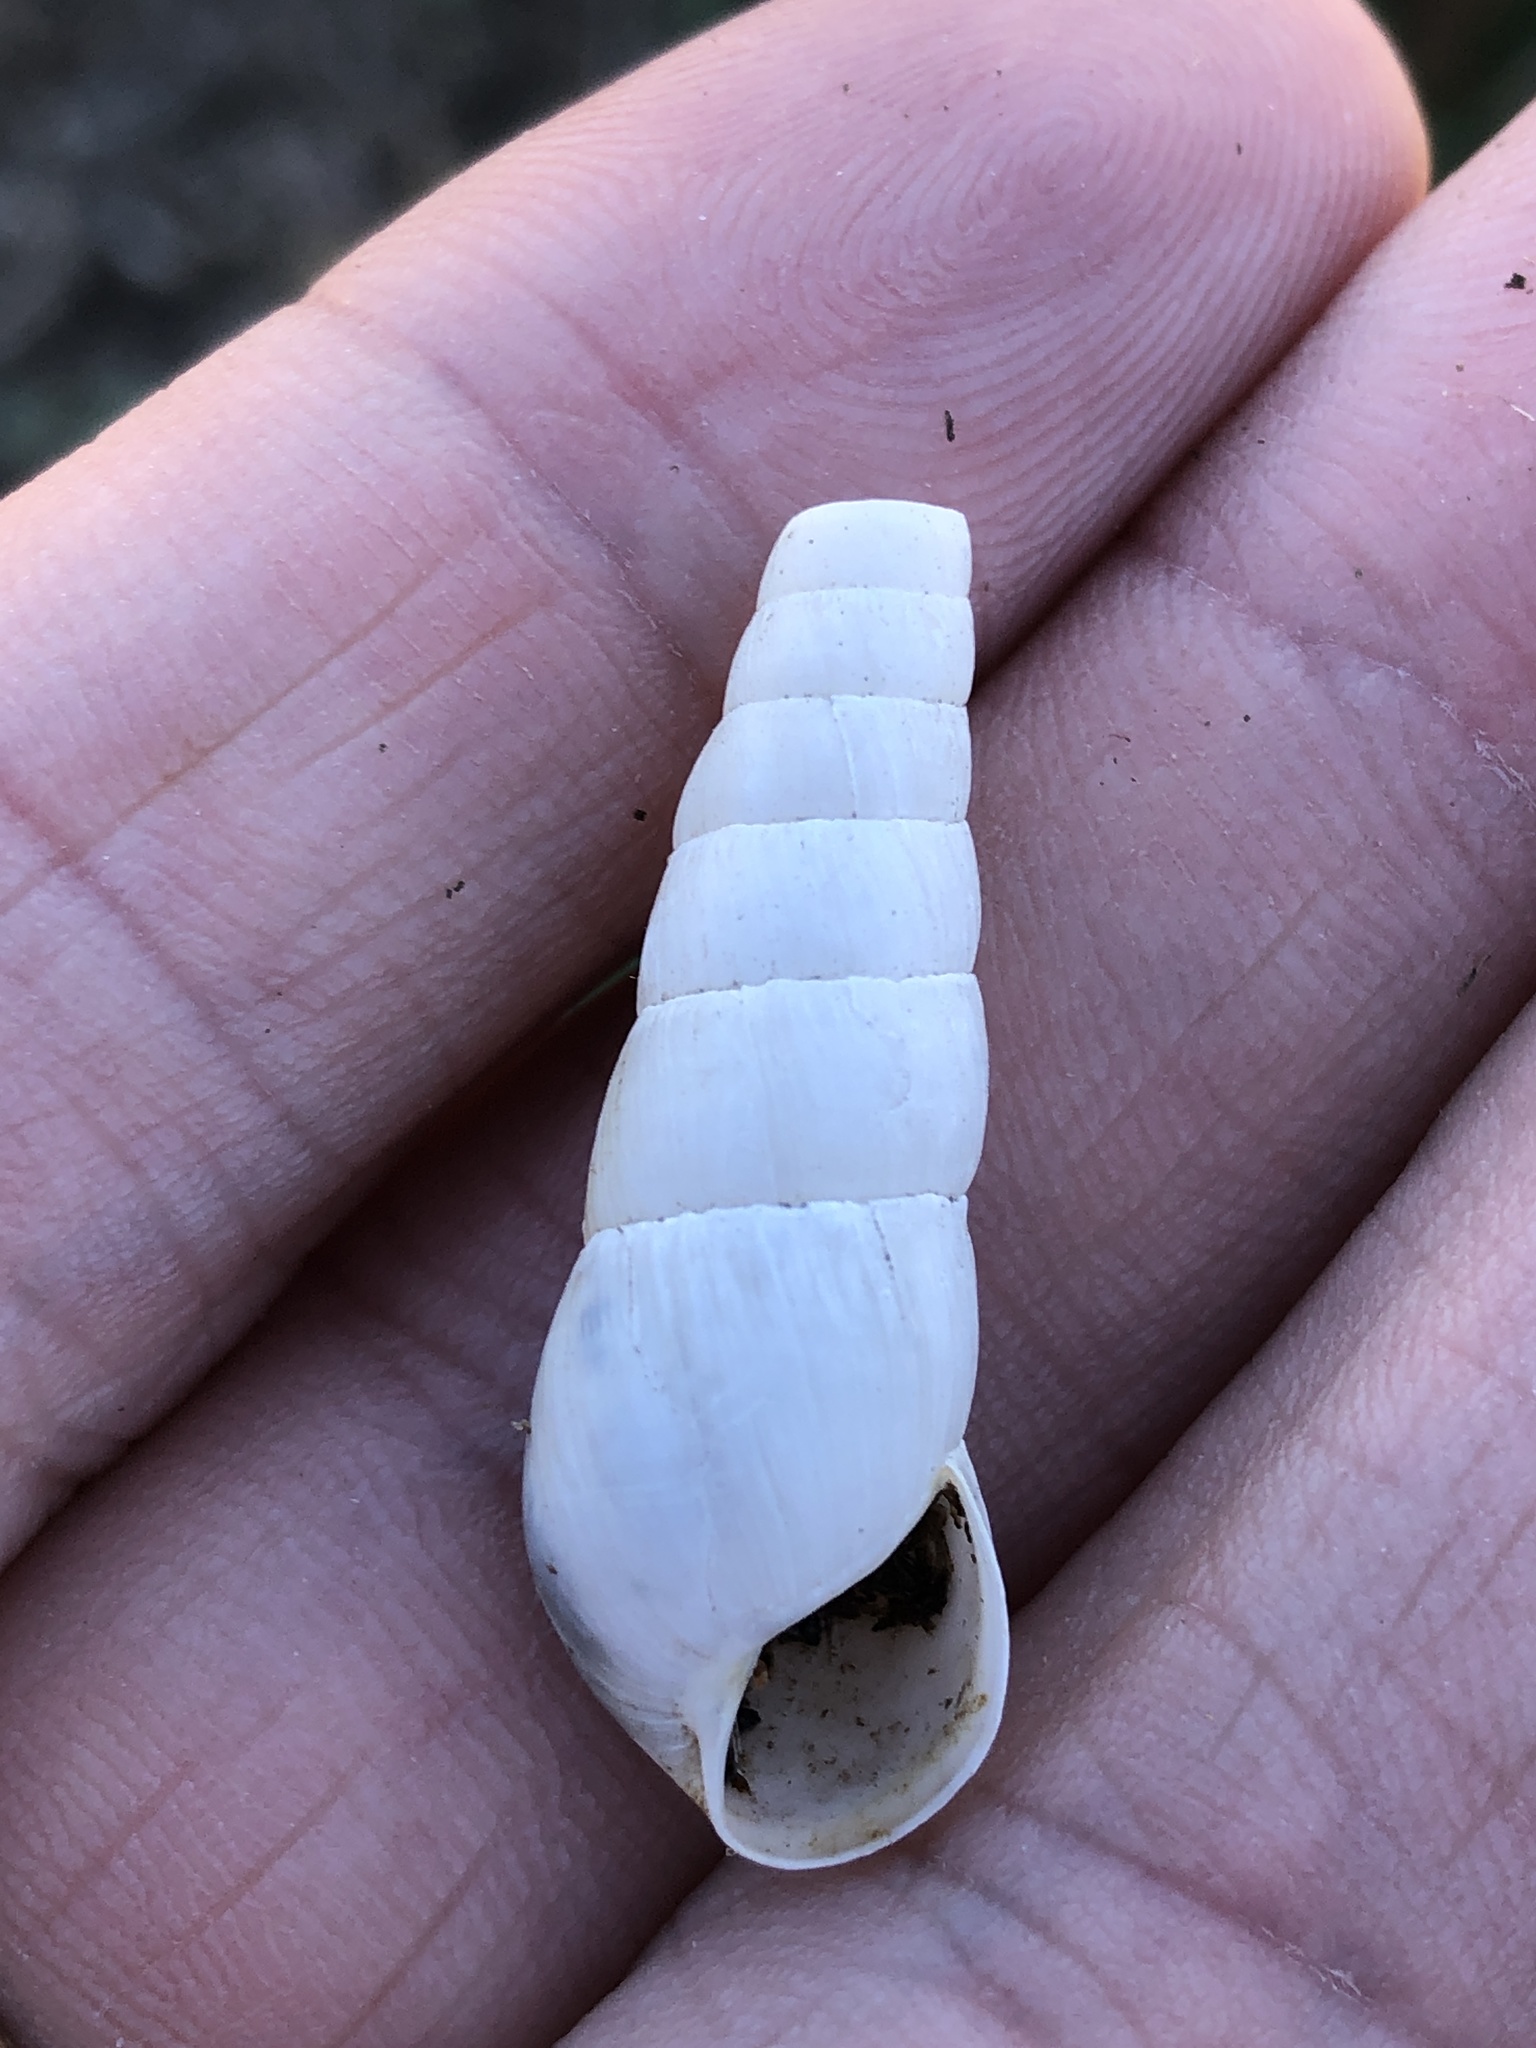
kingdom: Animalia
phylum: Mollusca
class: Gastropoda
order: Stylommatophora
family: Achatinidae
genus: Rumina
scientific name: Rumina decollata
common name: Decollate snail
